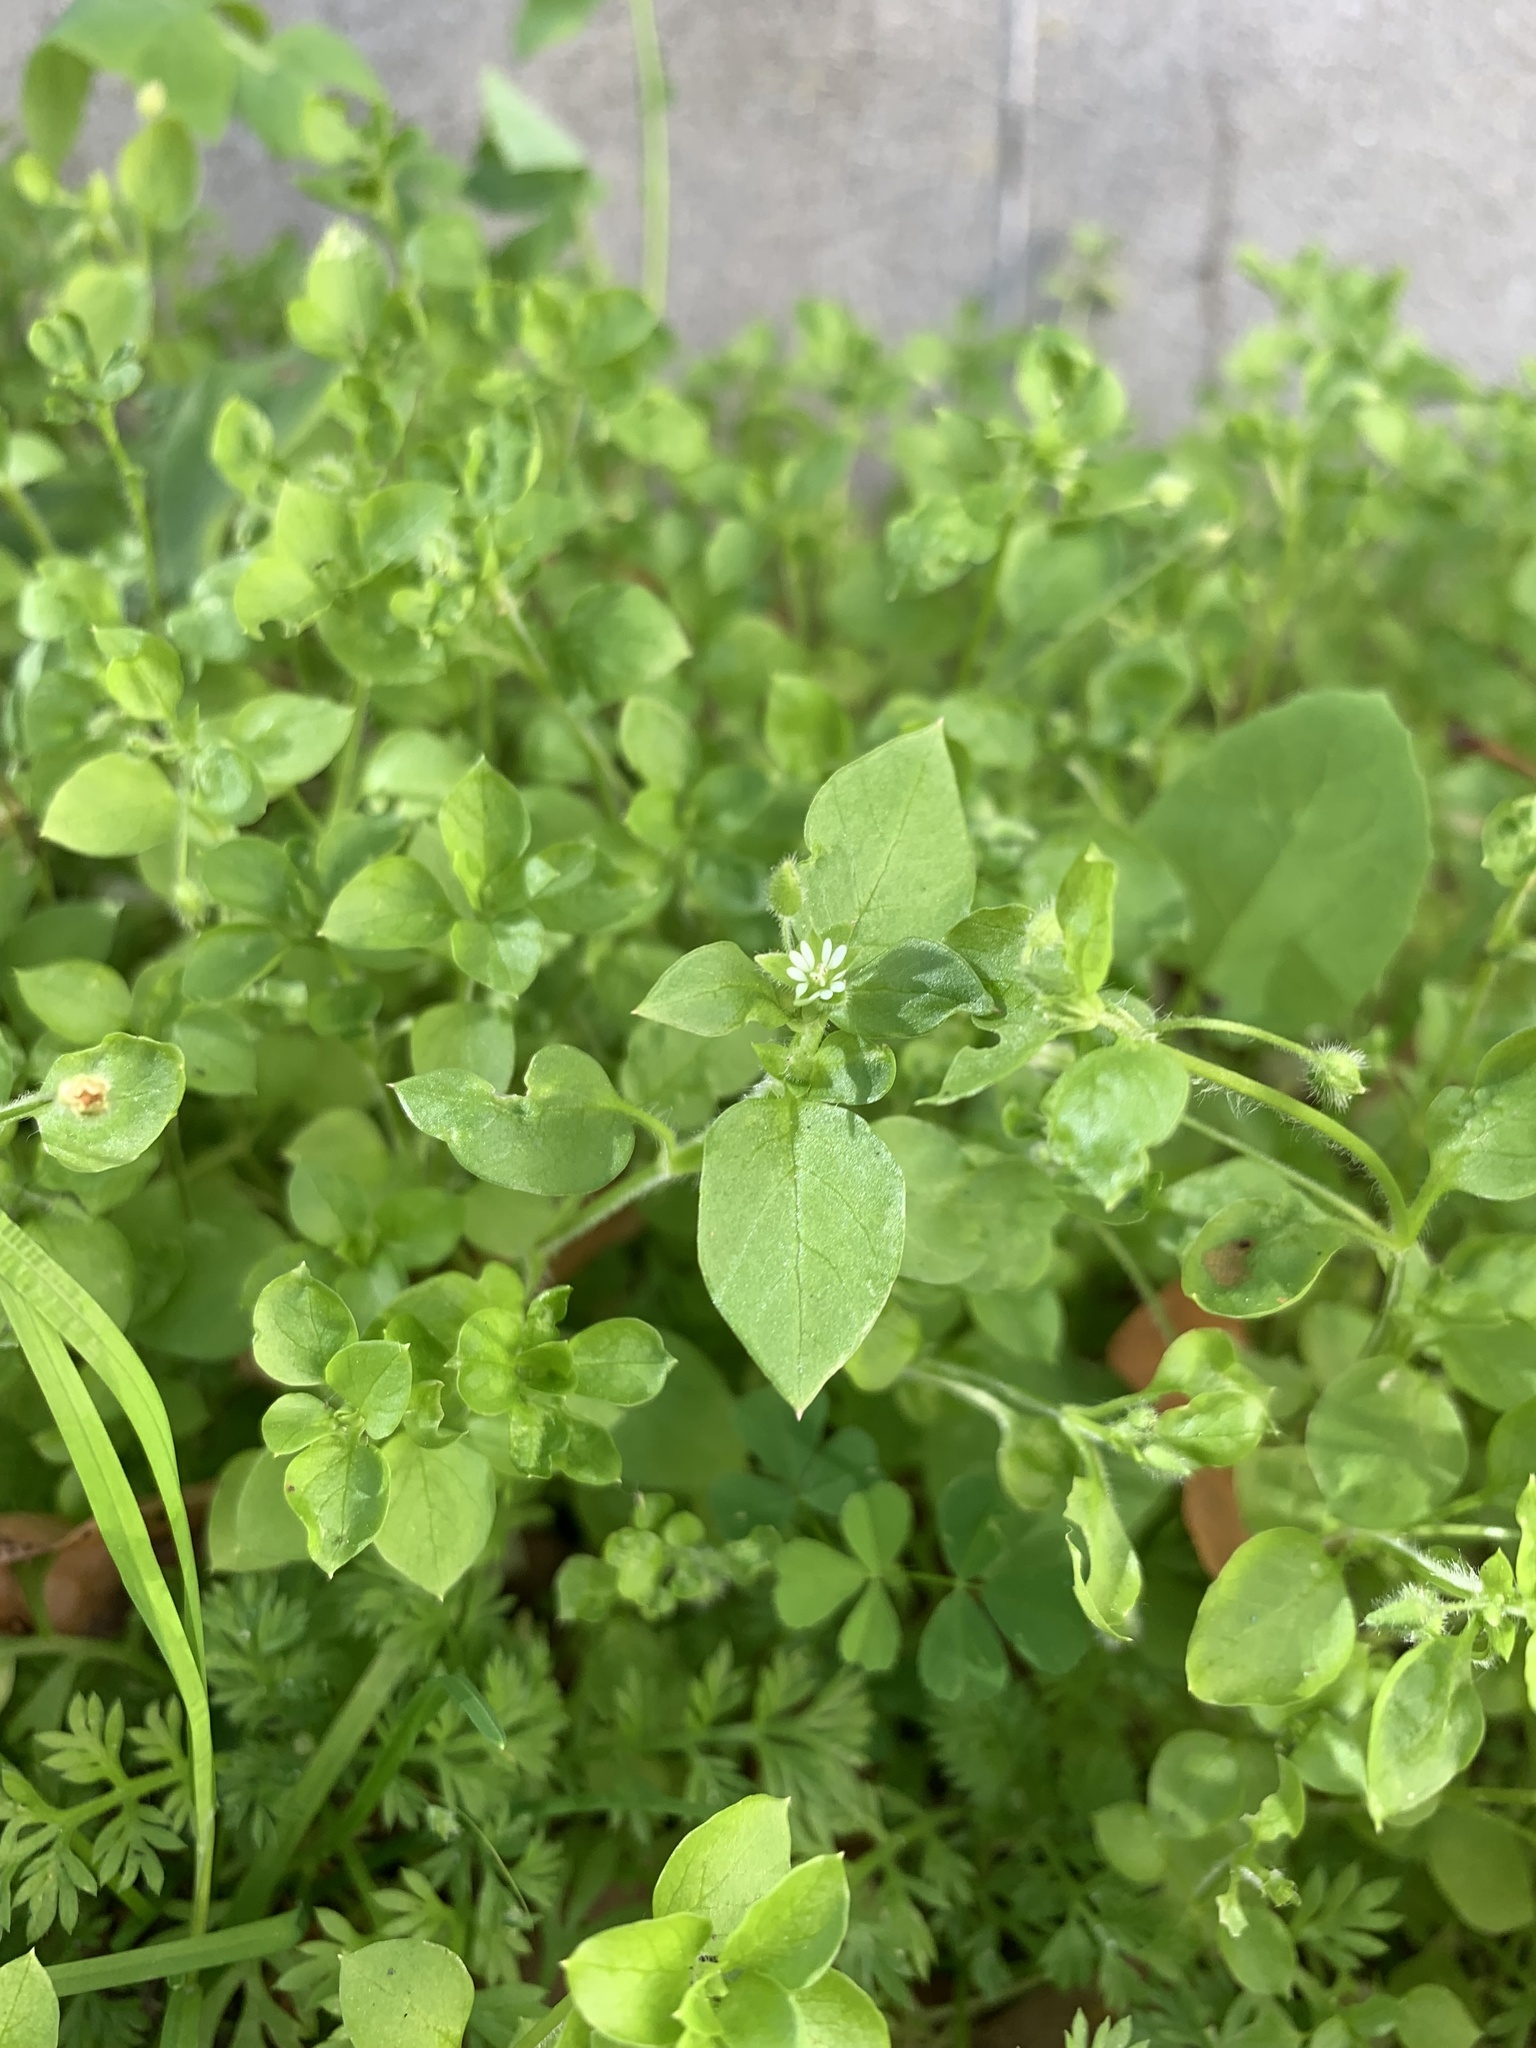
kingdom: Plantae
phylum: Tracheophyta
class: Magnoliopsida
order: Caryophyllales
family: Caryophyllaceae
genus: Stellaria
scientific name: Stellaria media
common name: Common chickweed
